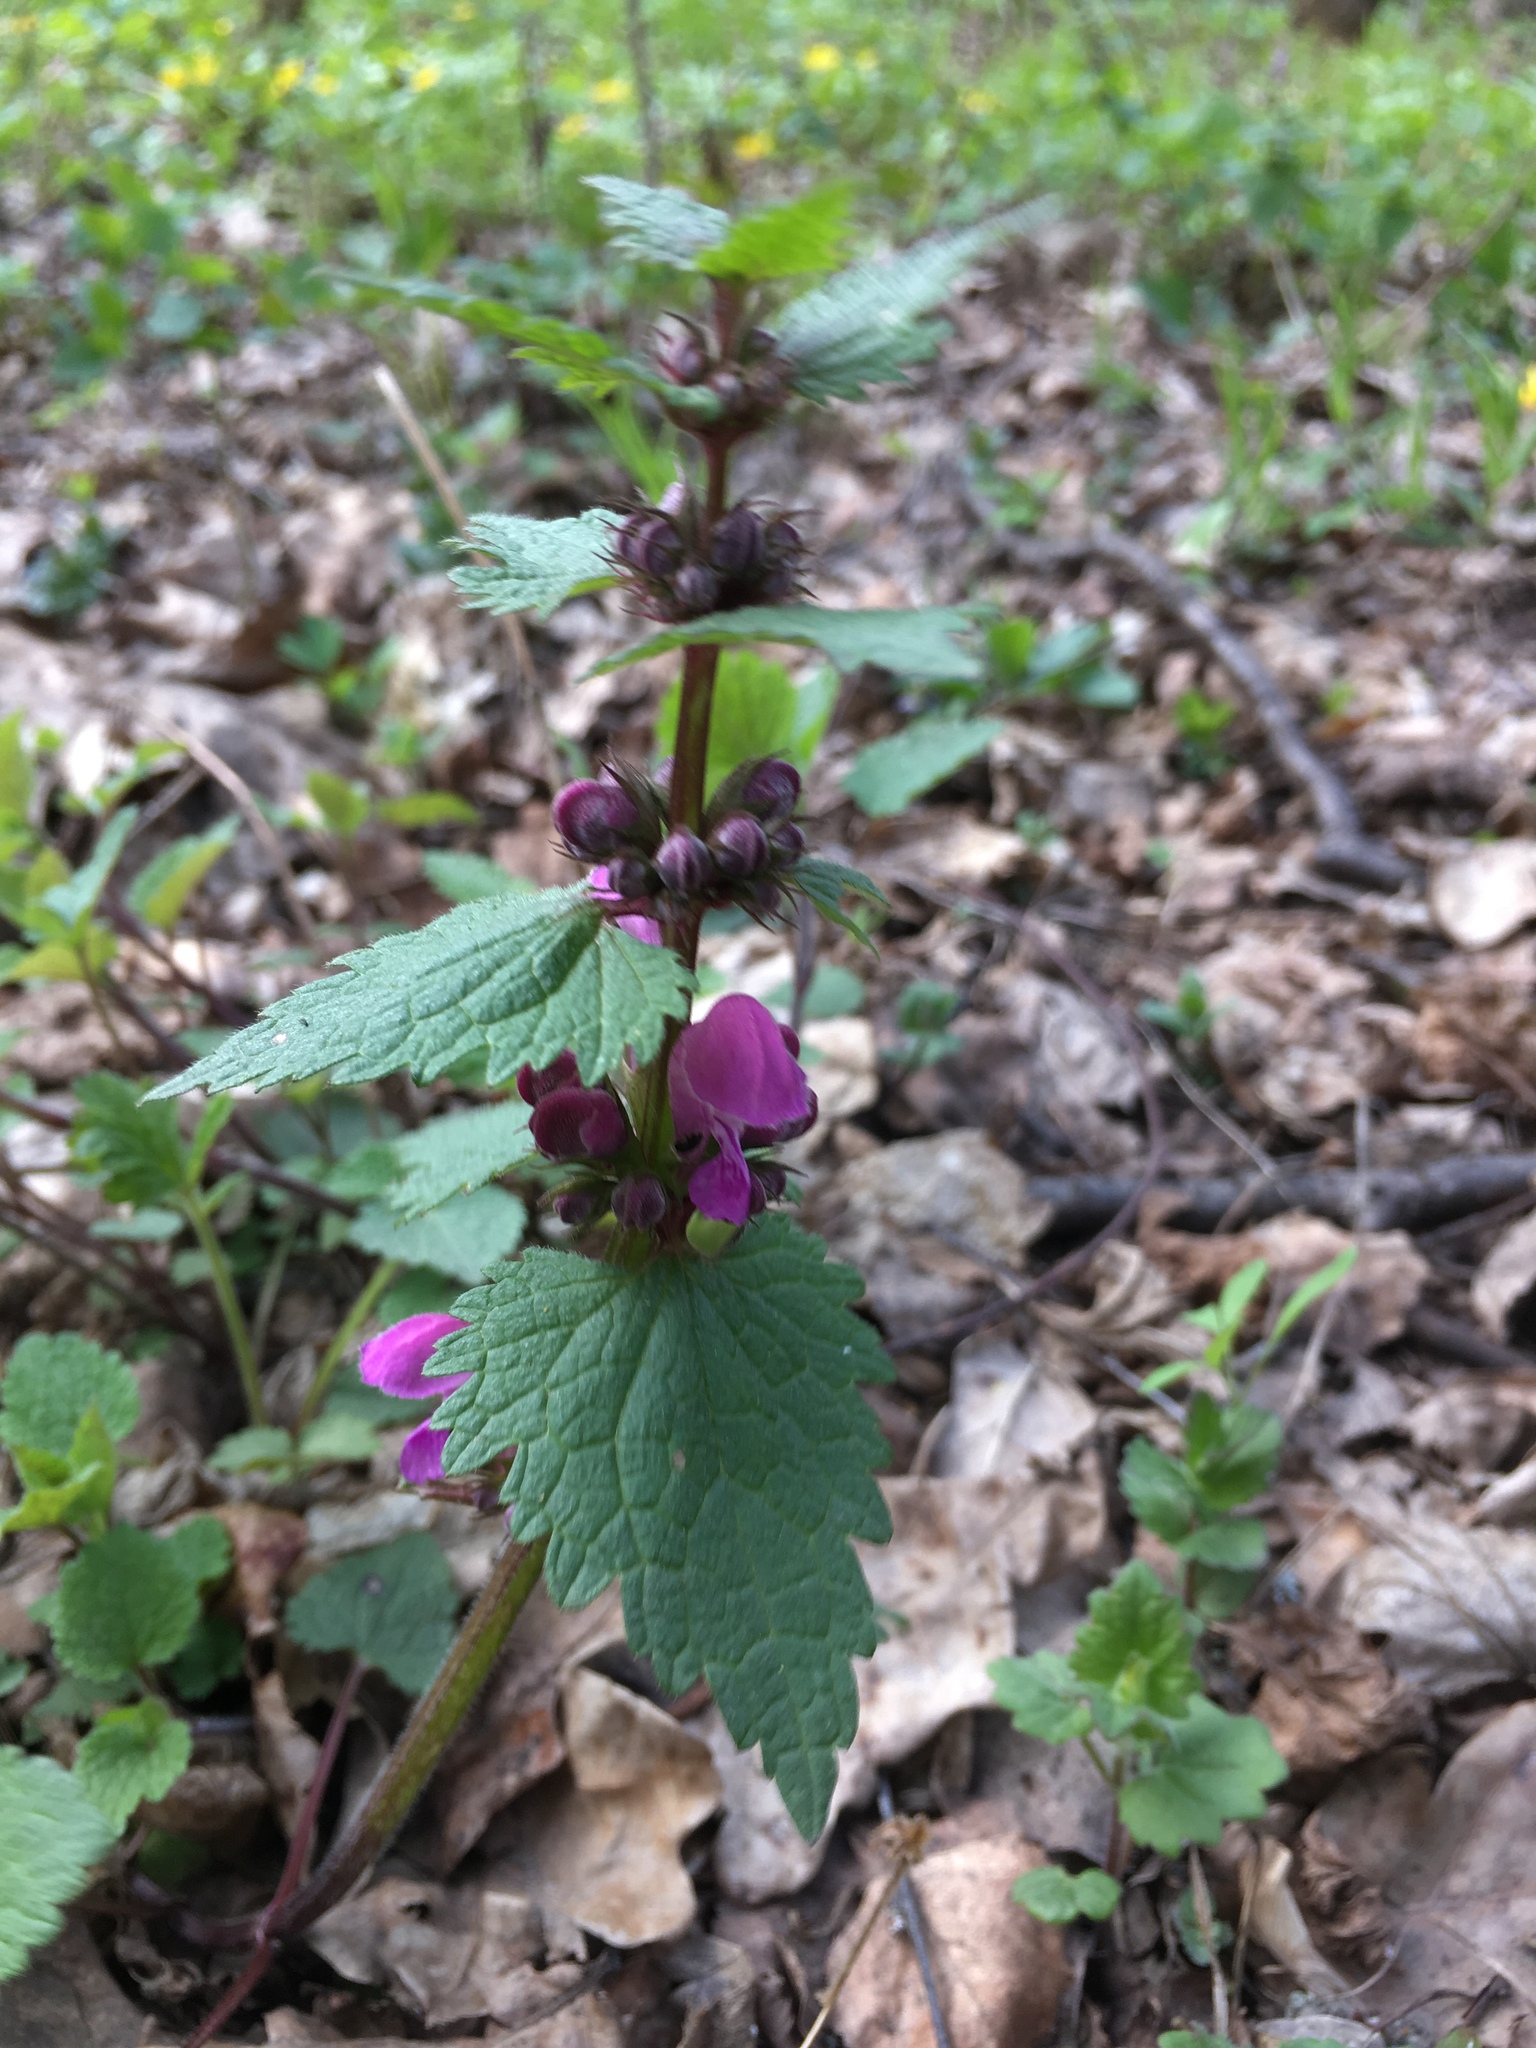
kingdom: Plantae
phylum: Tracheophyta
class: Magnoliopsida
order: Lamiales
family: Lamiaceae
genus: Lamium
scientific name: Lamium maculatum
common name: Spotted dead-nettle
